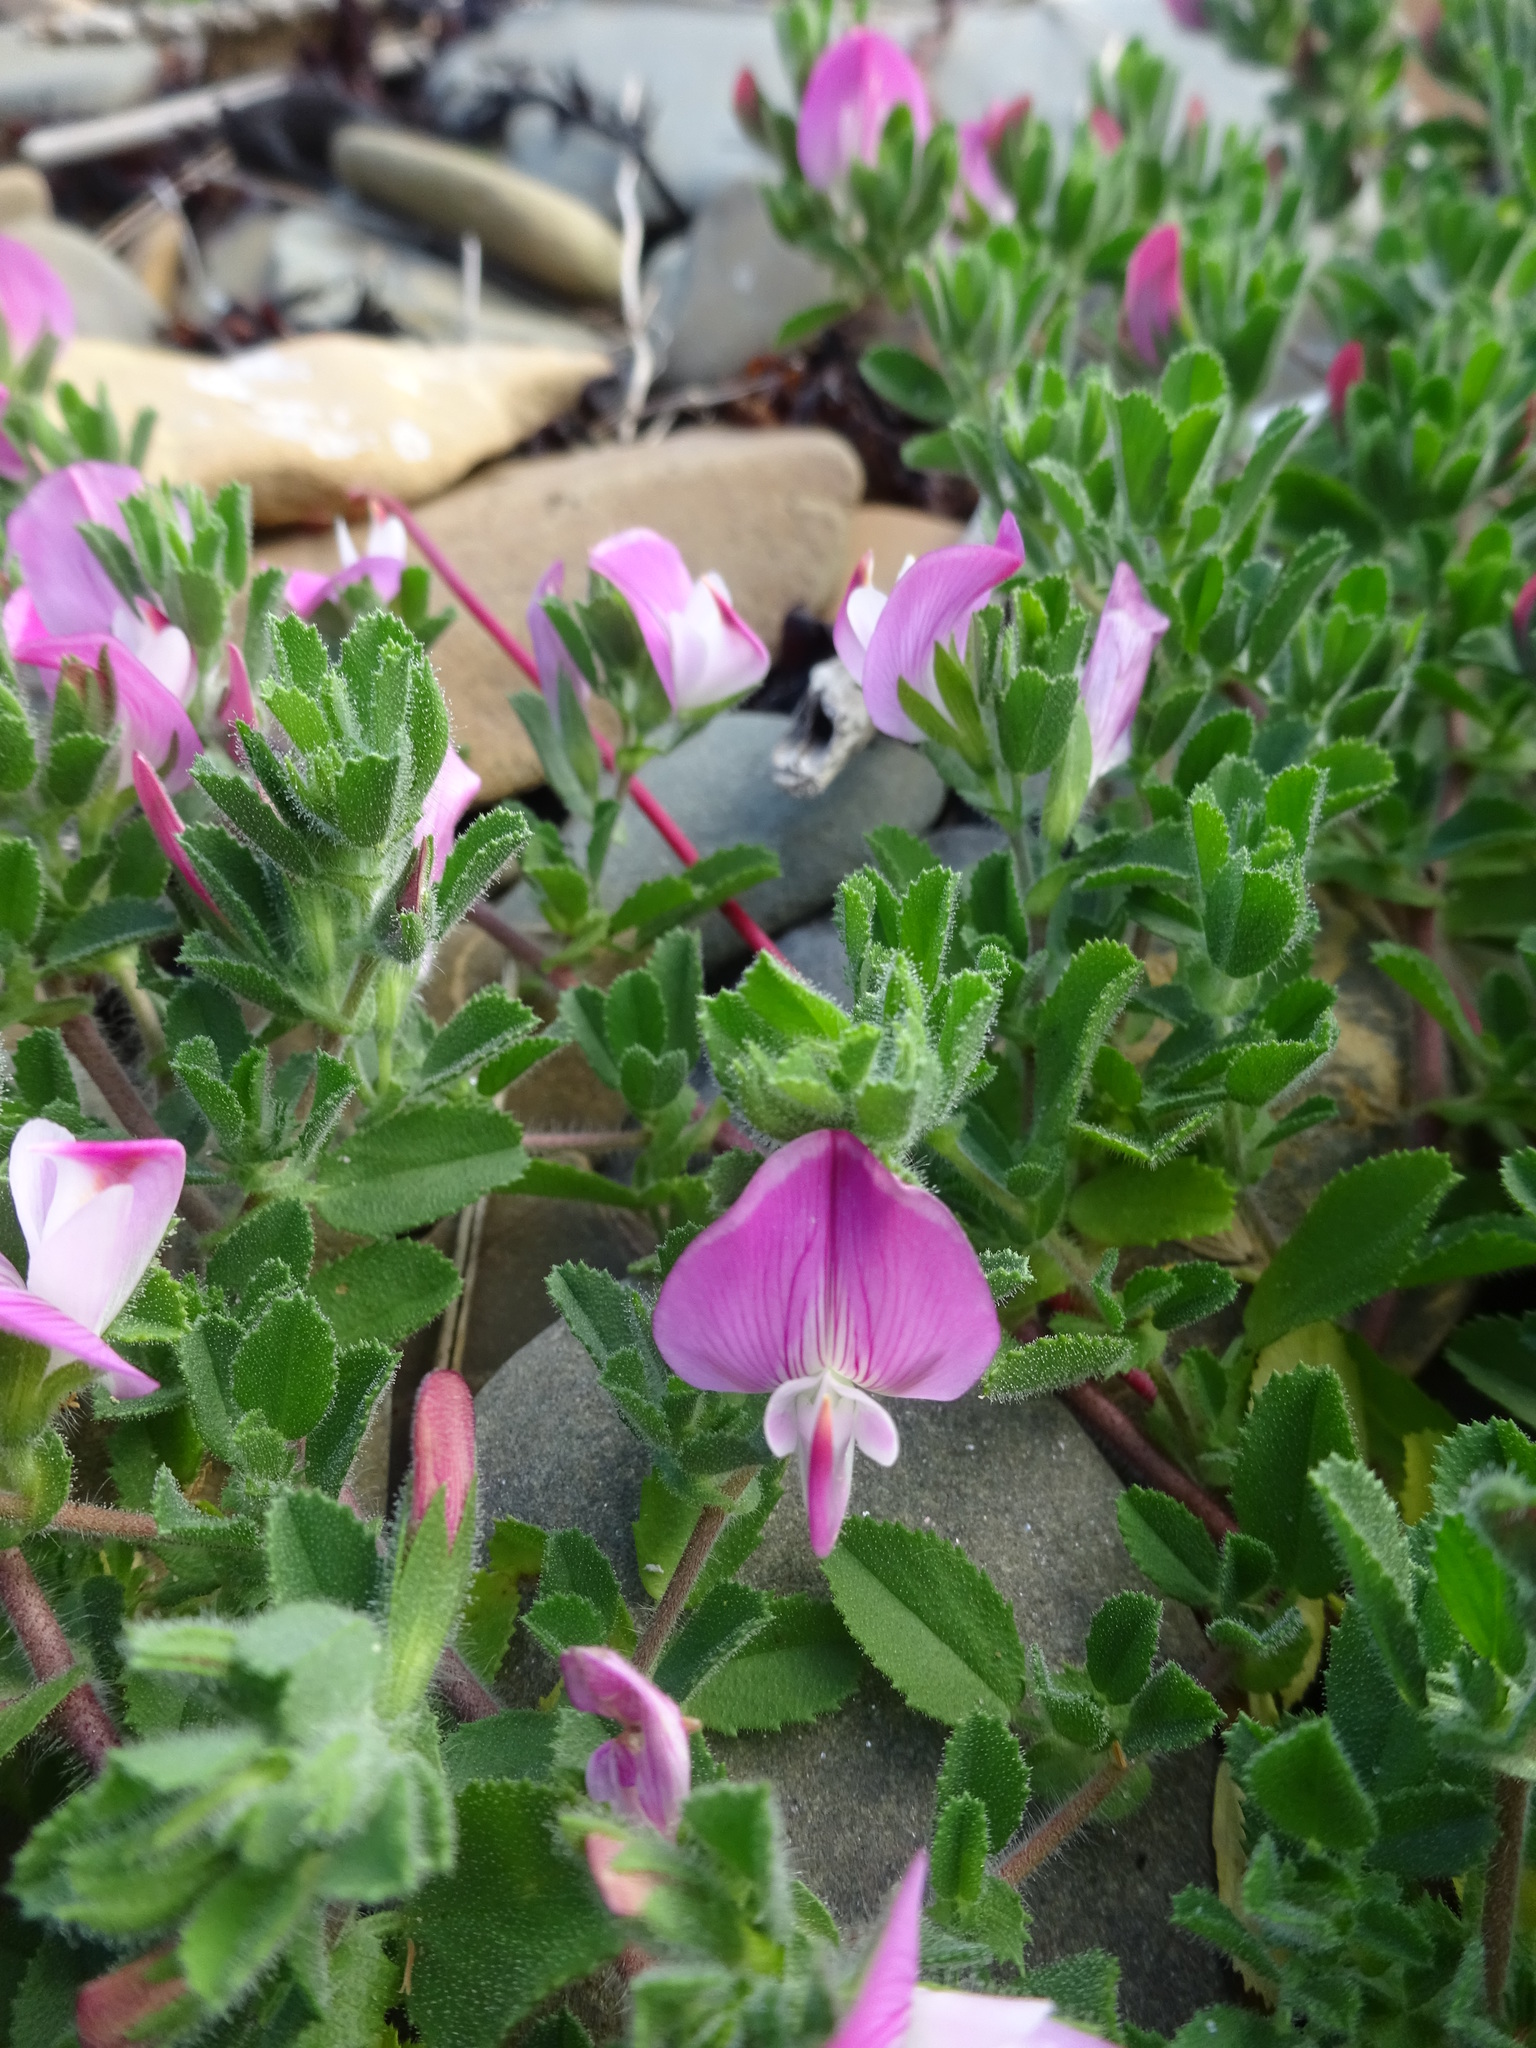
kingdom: Plantae
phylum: Tracheophyta
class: Magnoliopsida
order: Fabales
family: Fabaceae
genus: Ononis
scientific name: Ononis spinosa
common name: Spiny restharrow
